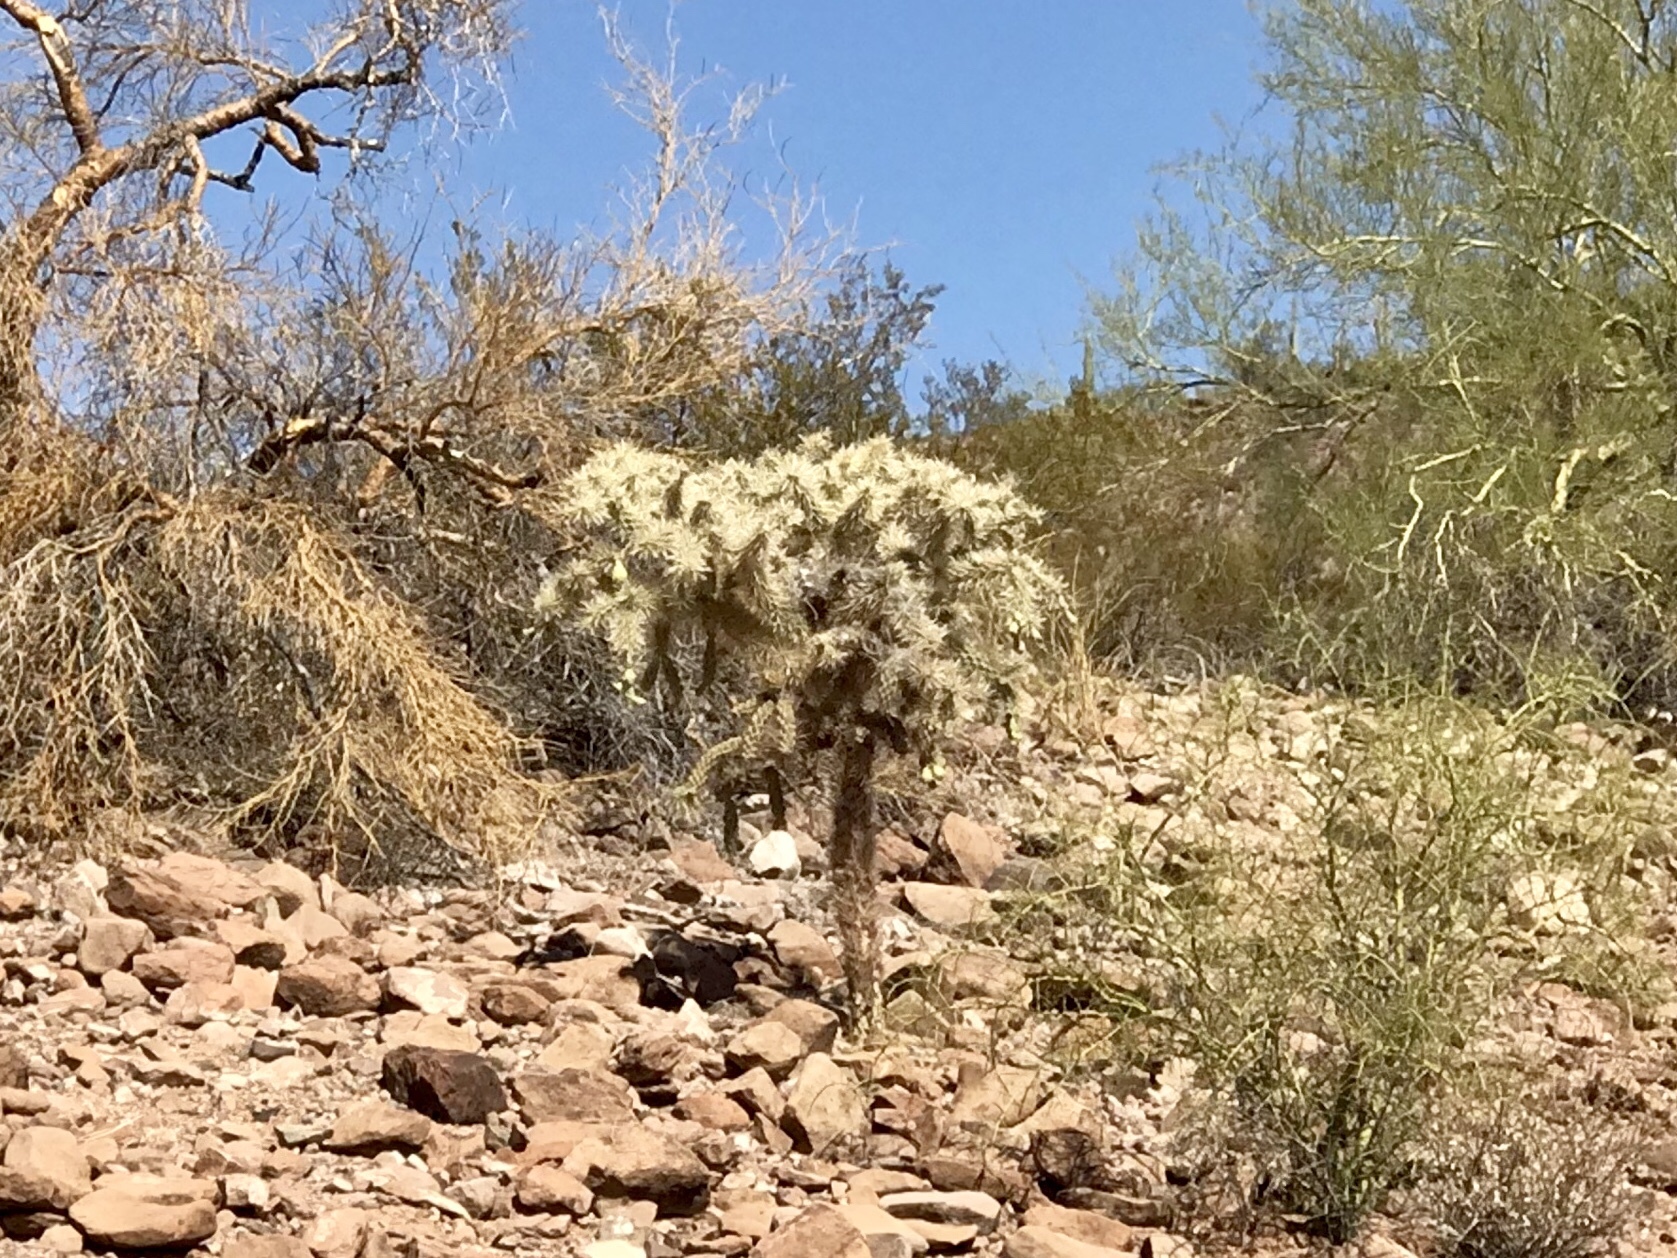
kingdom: Plantae
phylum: Tracheophyta
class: Magnoliopsida
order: Caryophyllales
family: Cactaceae
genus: Cylindropuntia
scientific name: Cylindropuntia fulgida
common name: Jumping cholla
